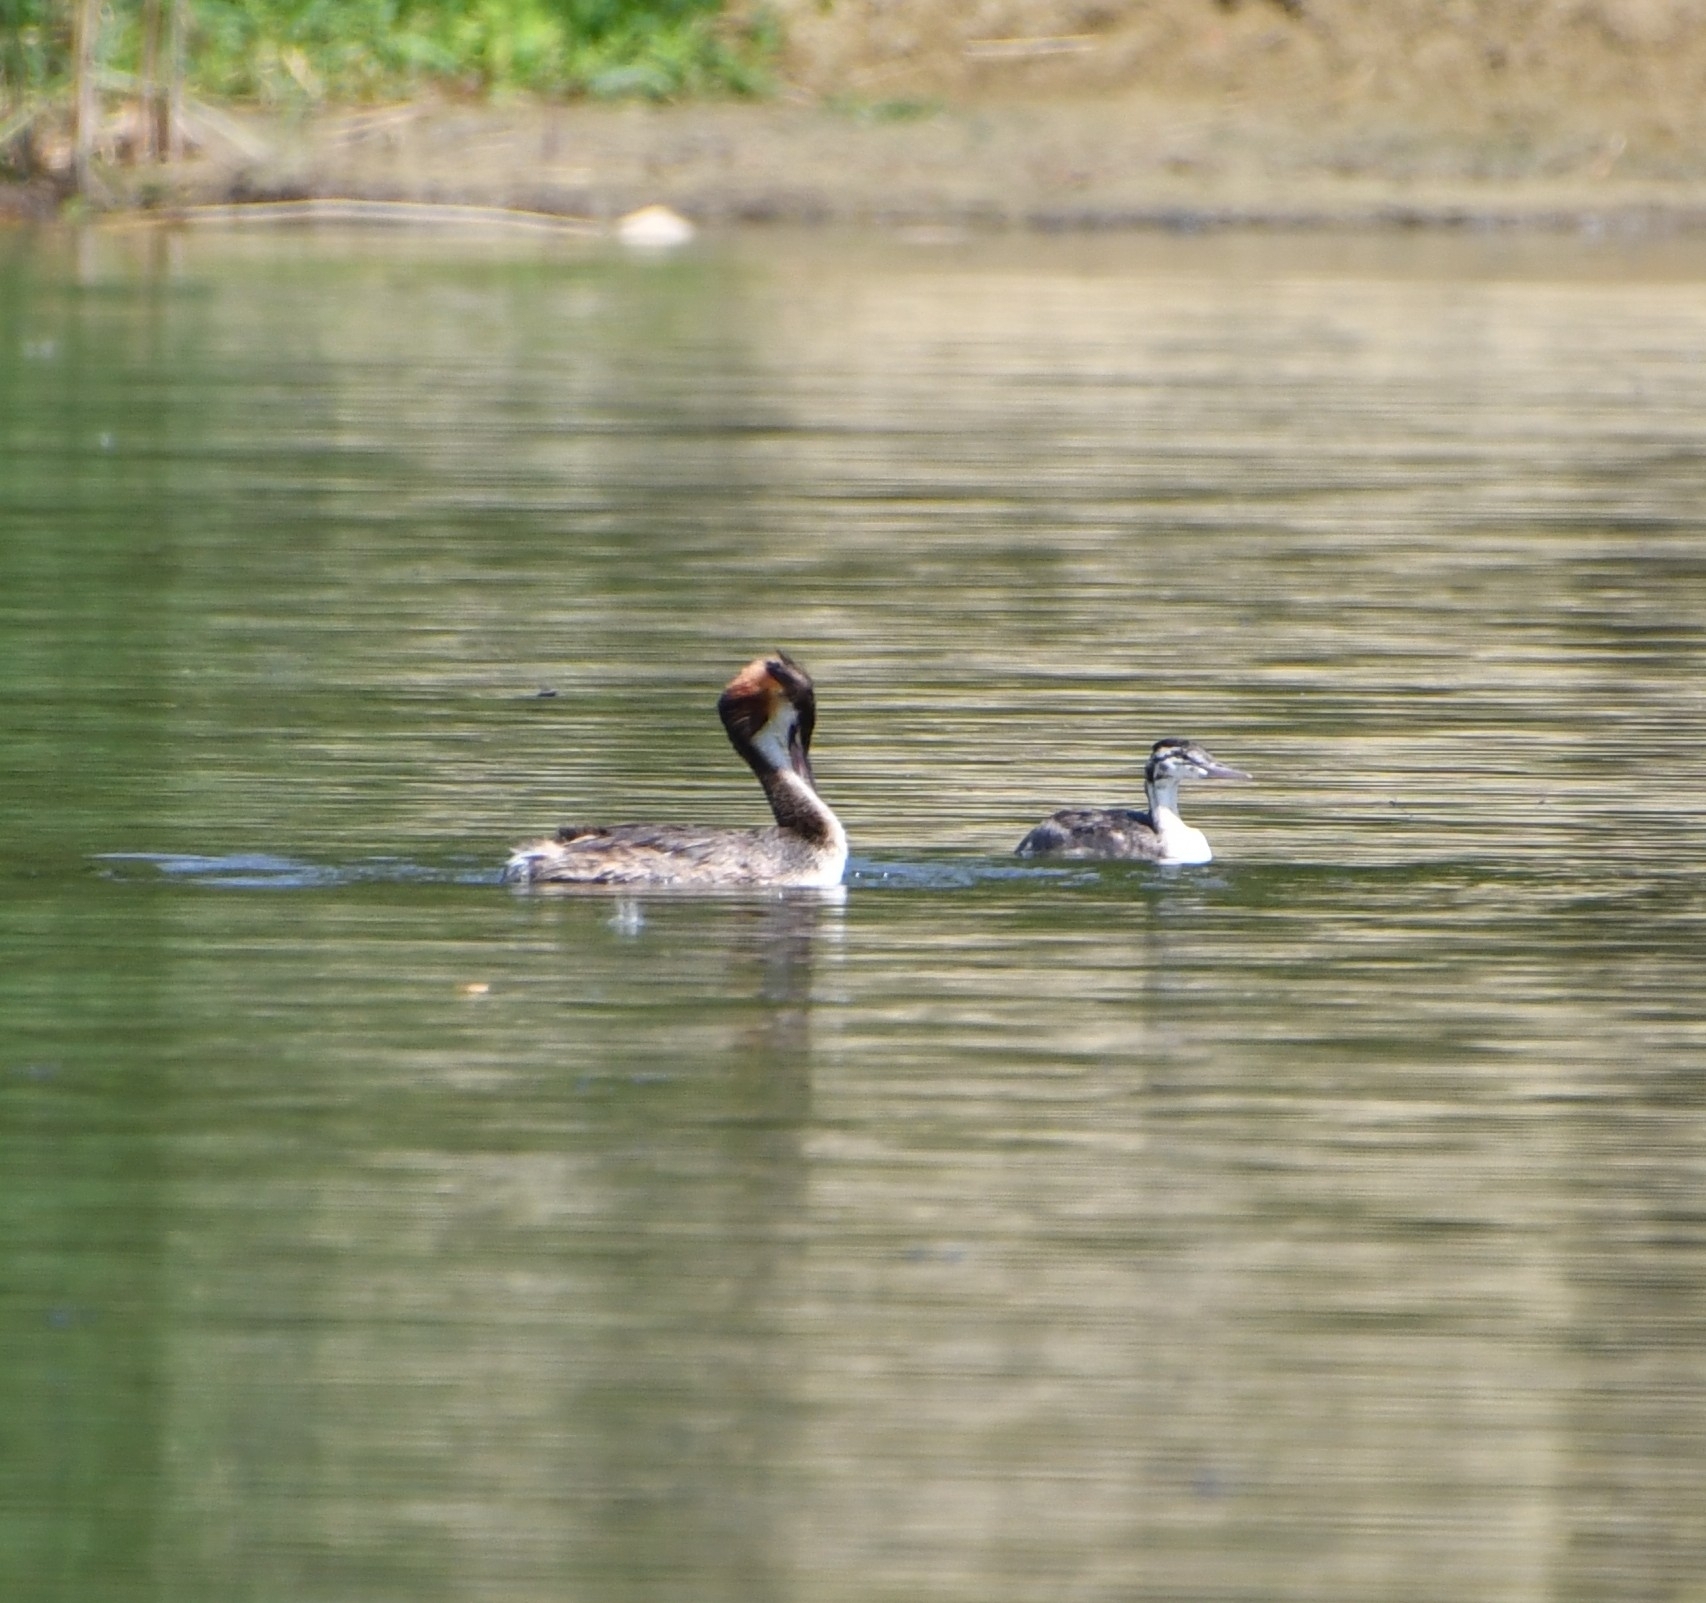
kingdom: Animalia
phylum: Chordata
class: Aves
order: Podicipediformes
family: Podicipedidae
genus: Podiceps
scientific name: Podiceps cristatus
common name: Great crested grebe
